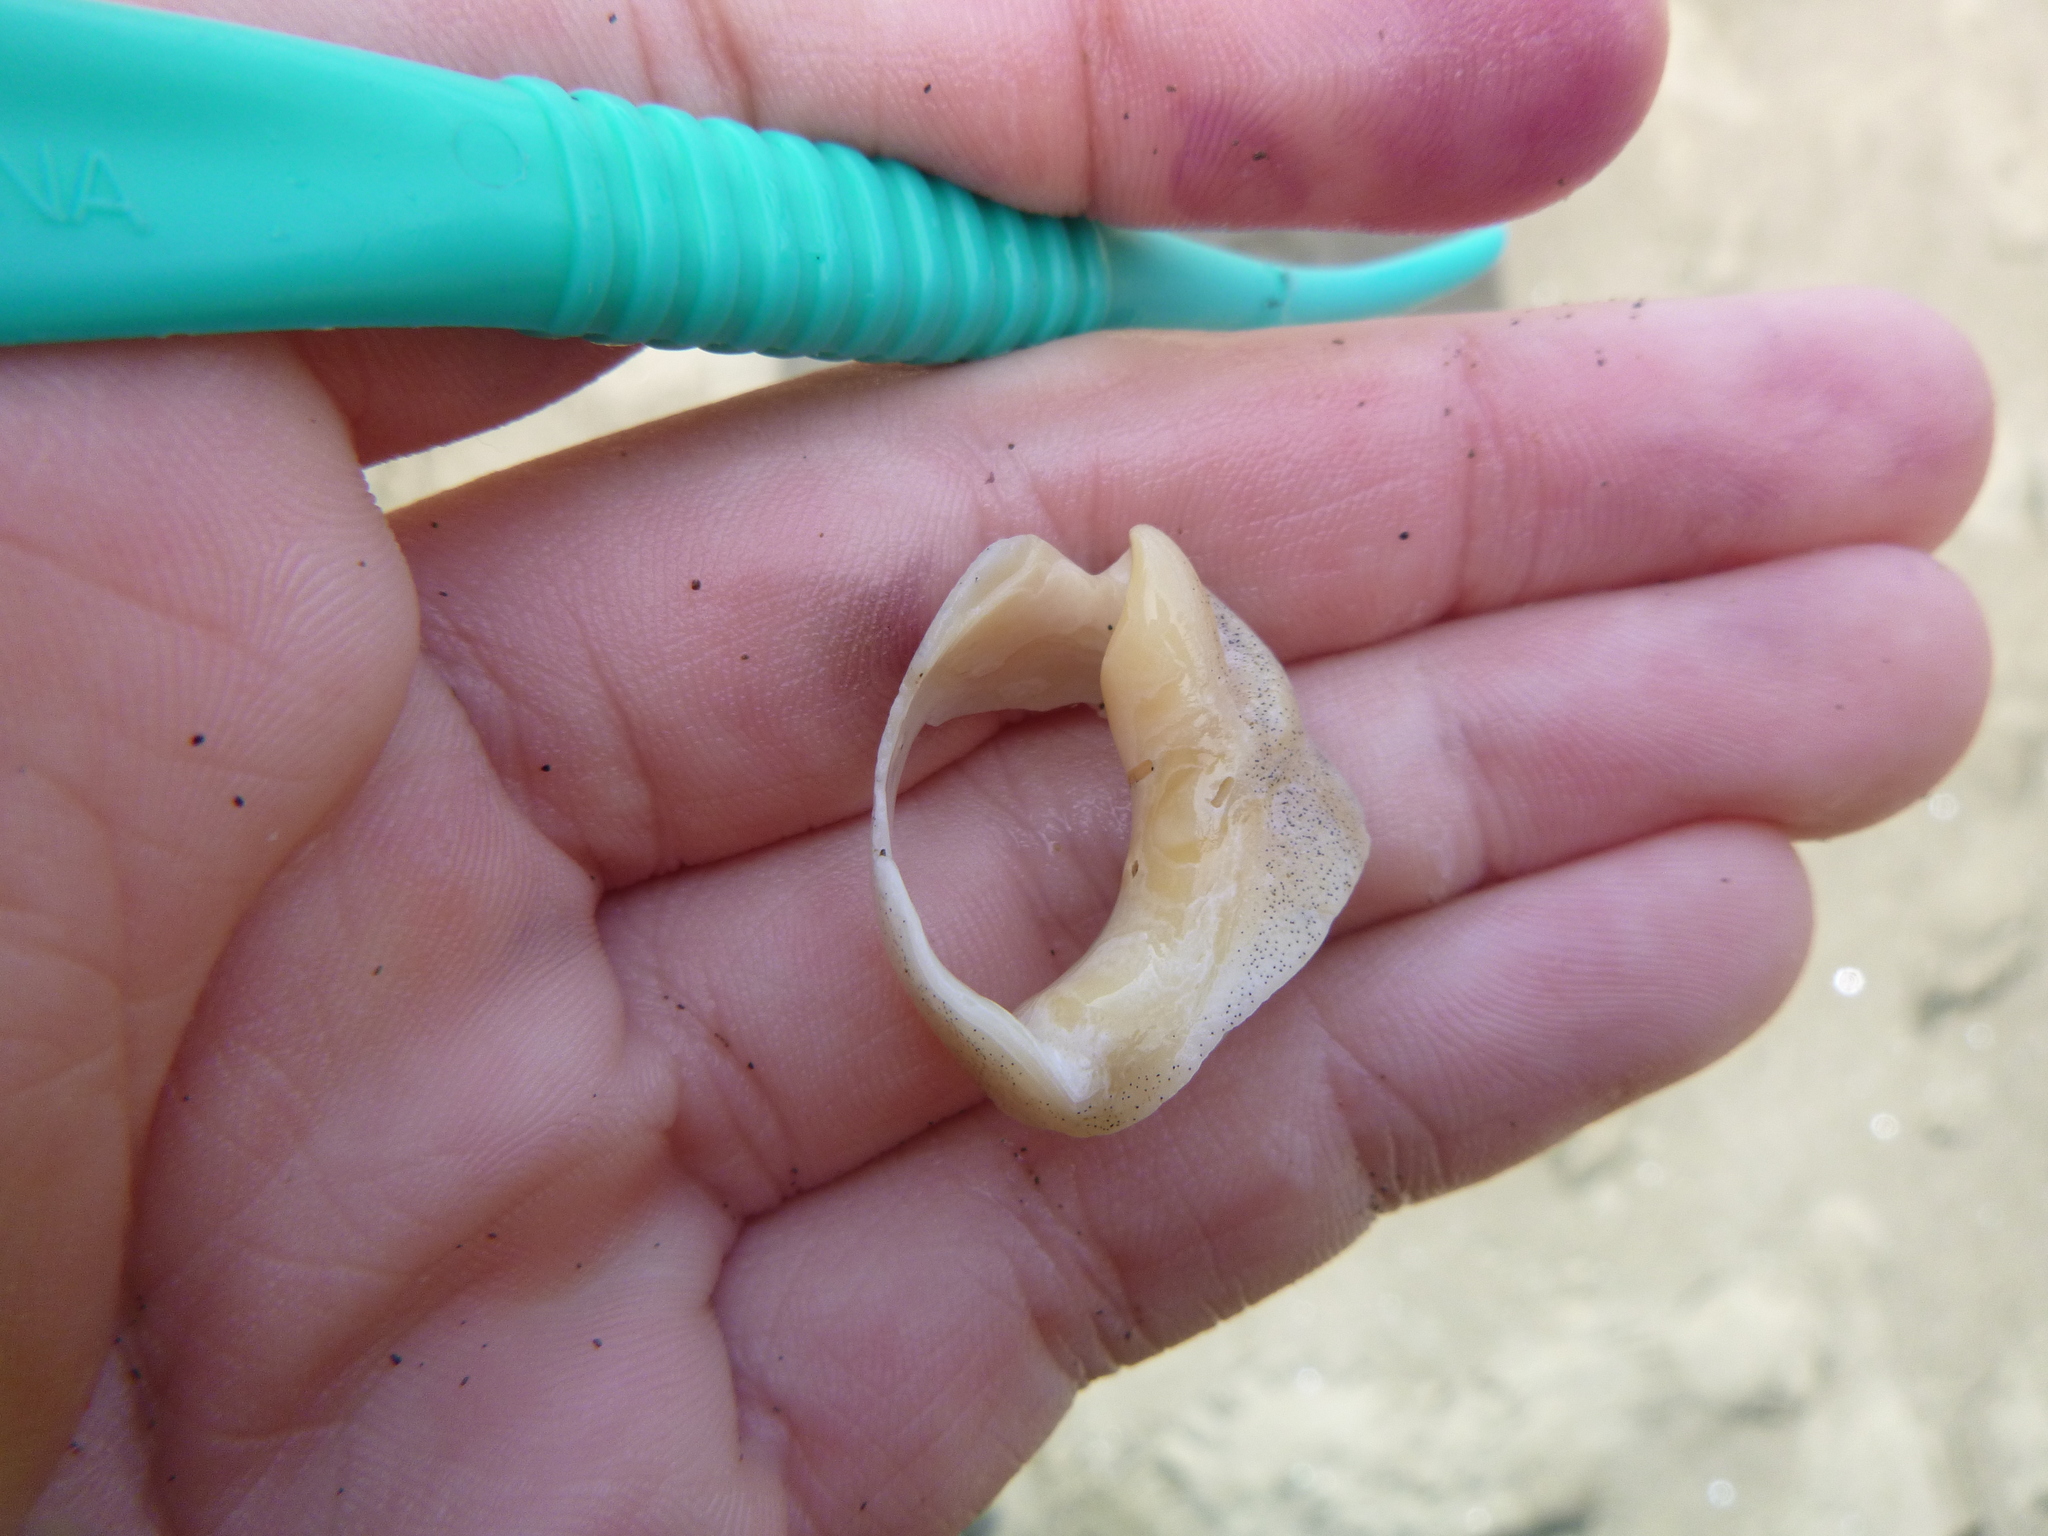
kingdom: Animalia
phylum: Mollusca
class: Gastropoda
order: Neogastropoda
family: Cominellidae
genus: Cominella
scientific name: Cominella adspersa
